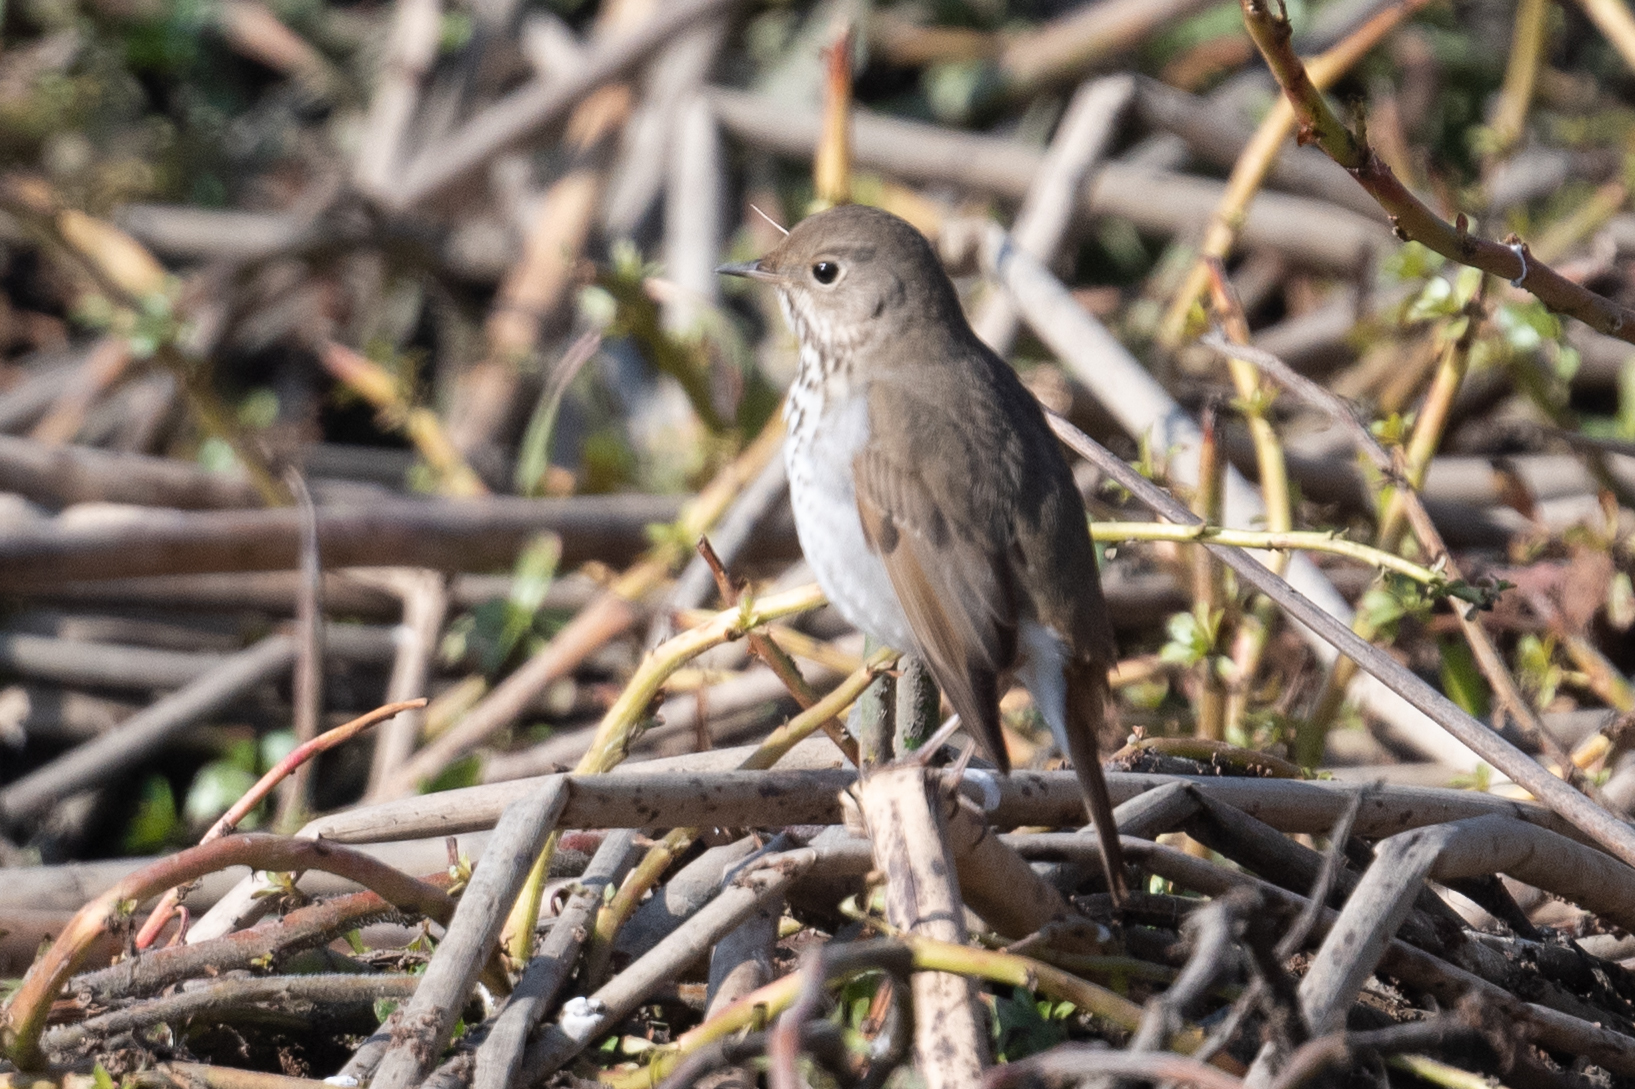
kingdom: Animalia
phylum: Chordata
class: Aves
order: Passeriformes
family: Turdidae
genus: Catharus
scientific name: Catharus guttatus
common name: Hermit thrush
